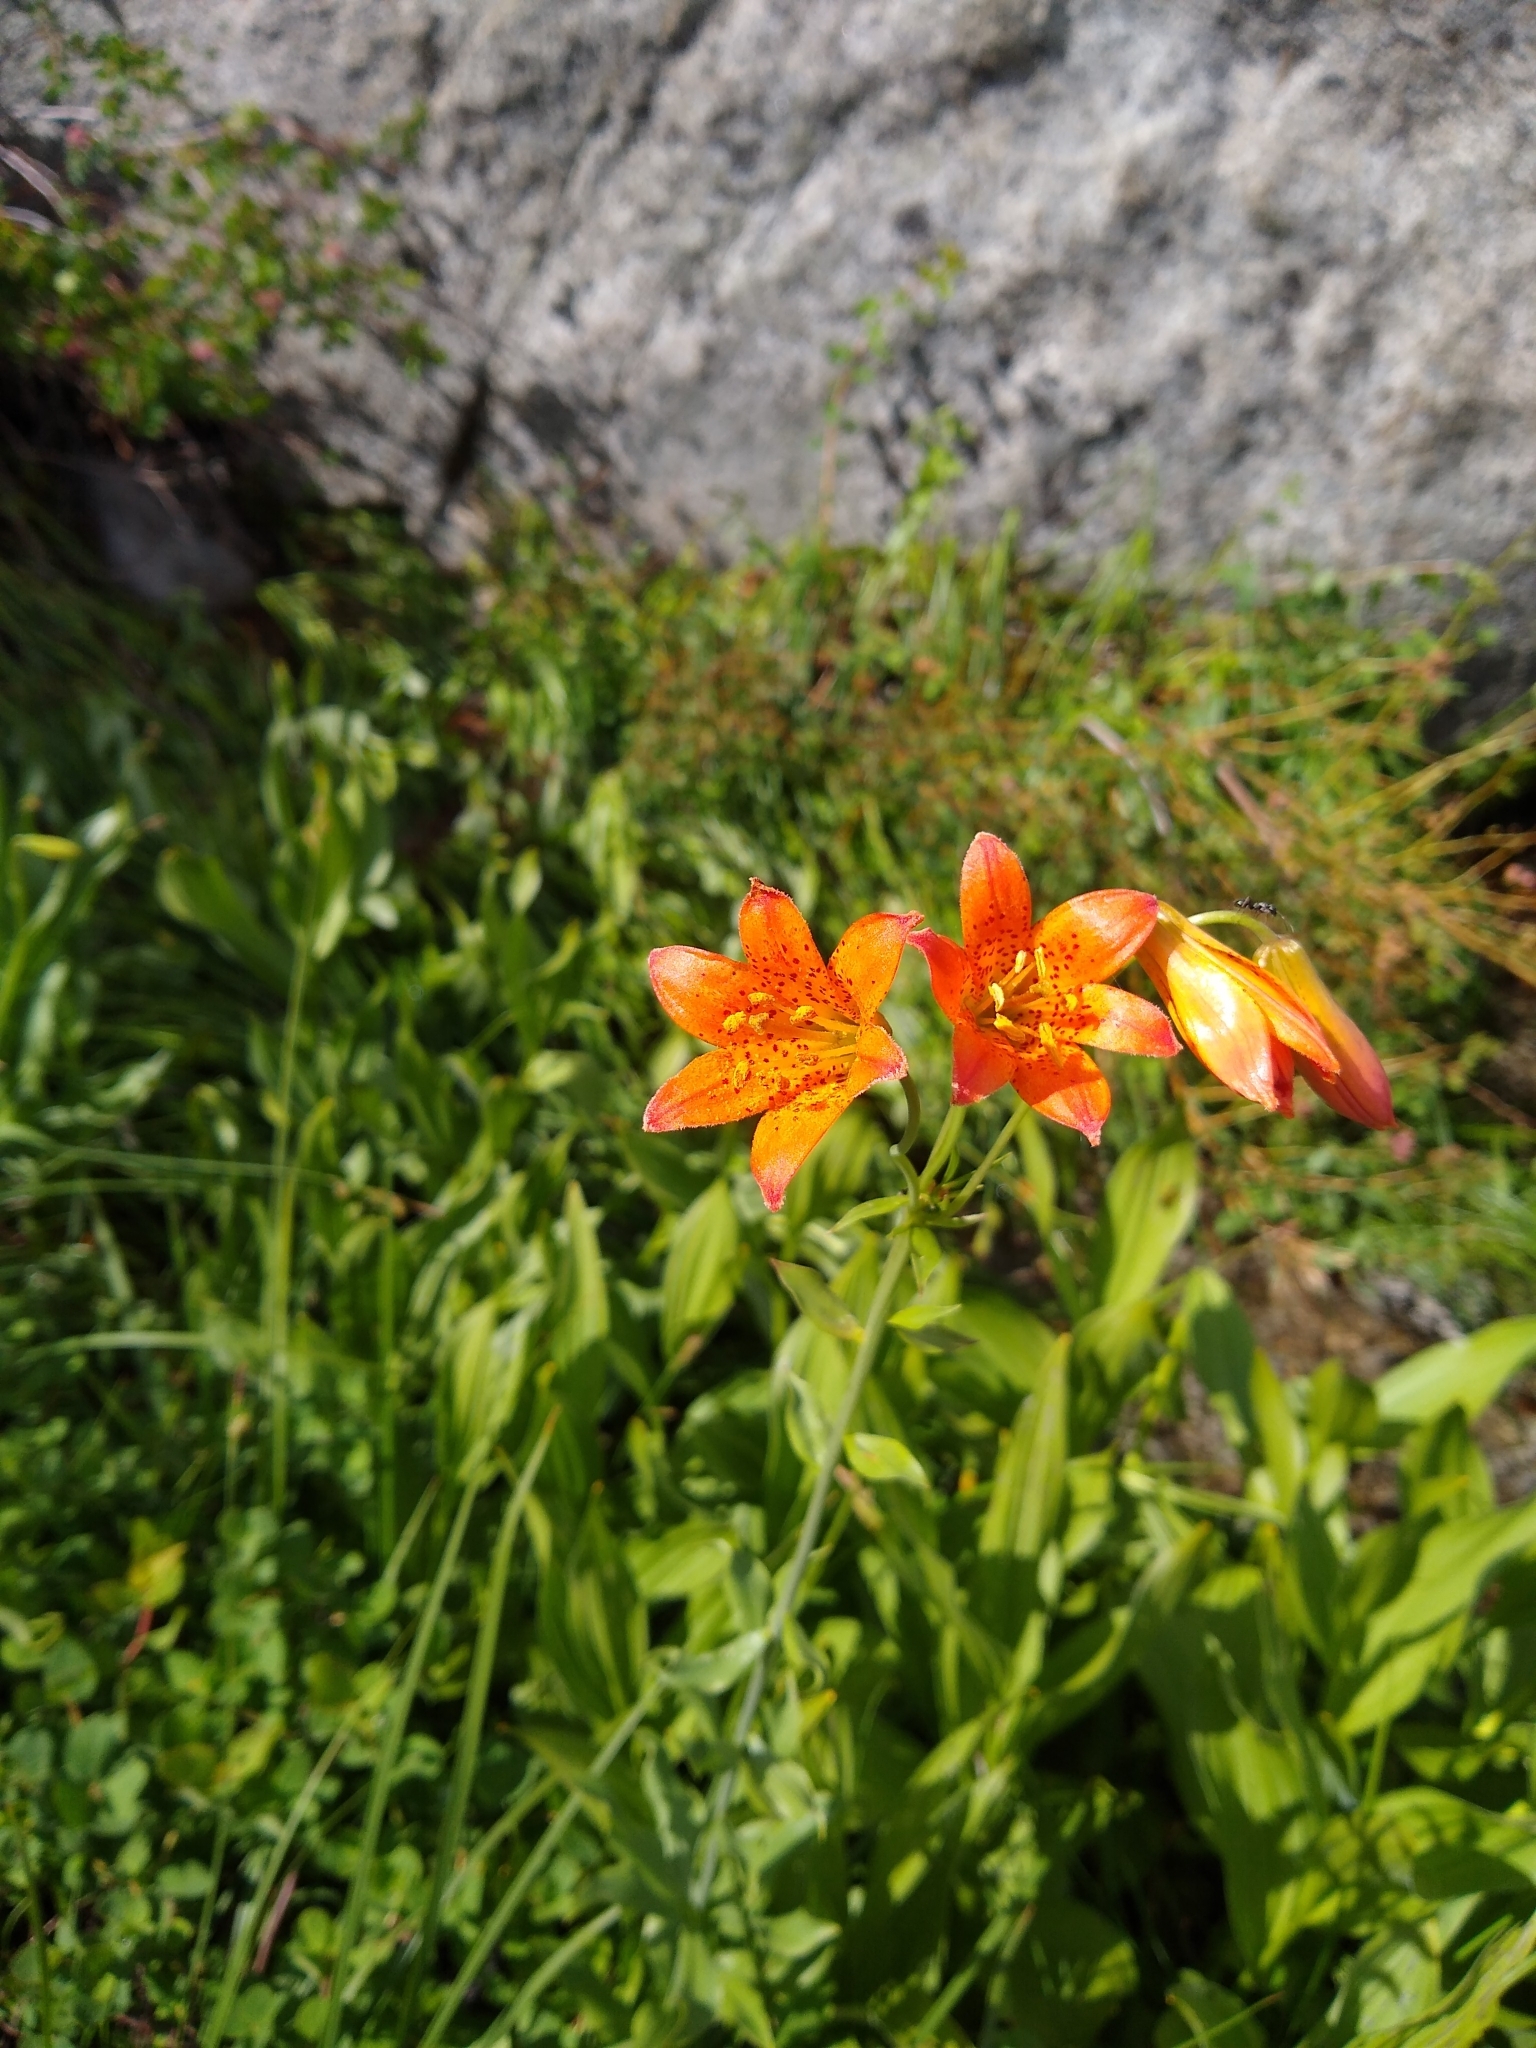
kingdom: Plantae
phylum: Tracheophyta
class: Liliopsida
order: Liliales
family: Liliaceae
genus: Lilium
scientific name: Lilium parvum
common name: Alpine lily
